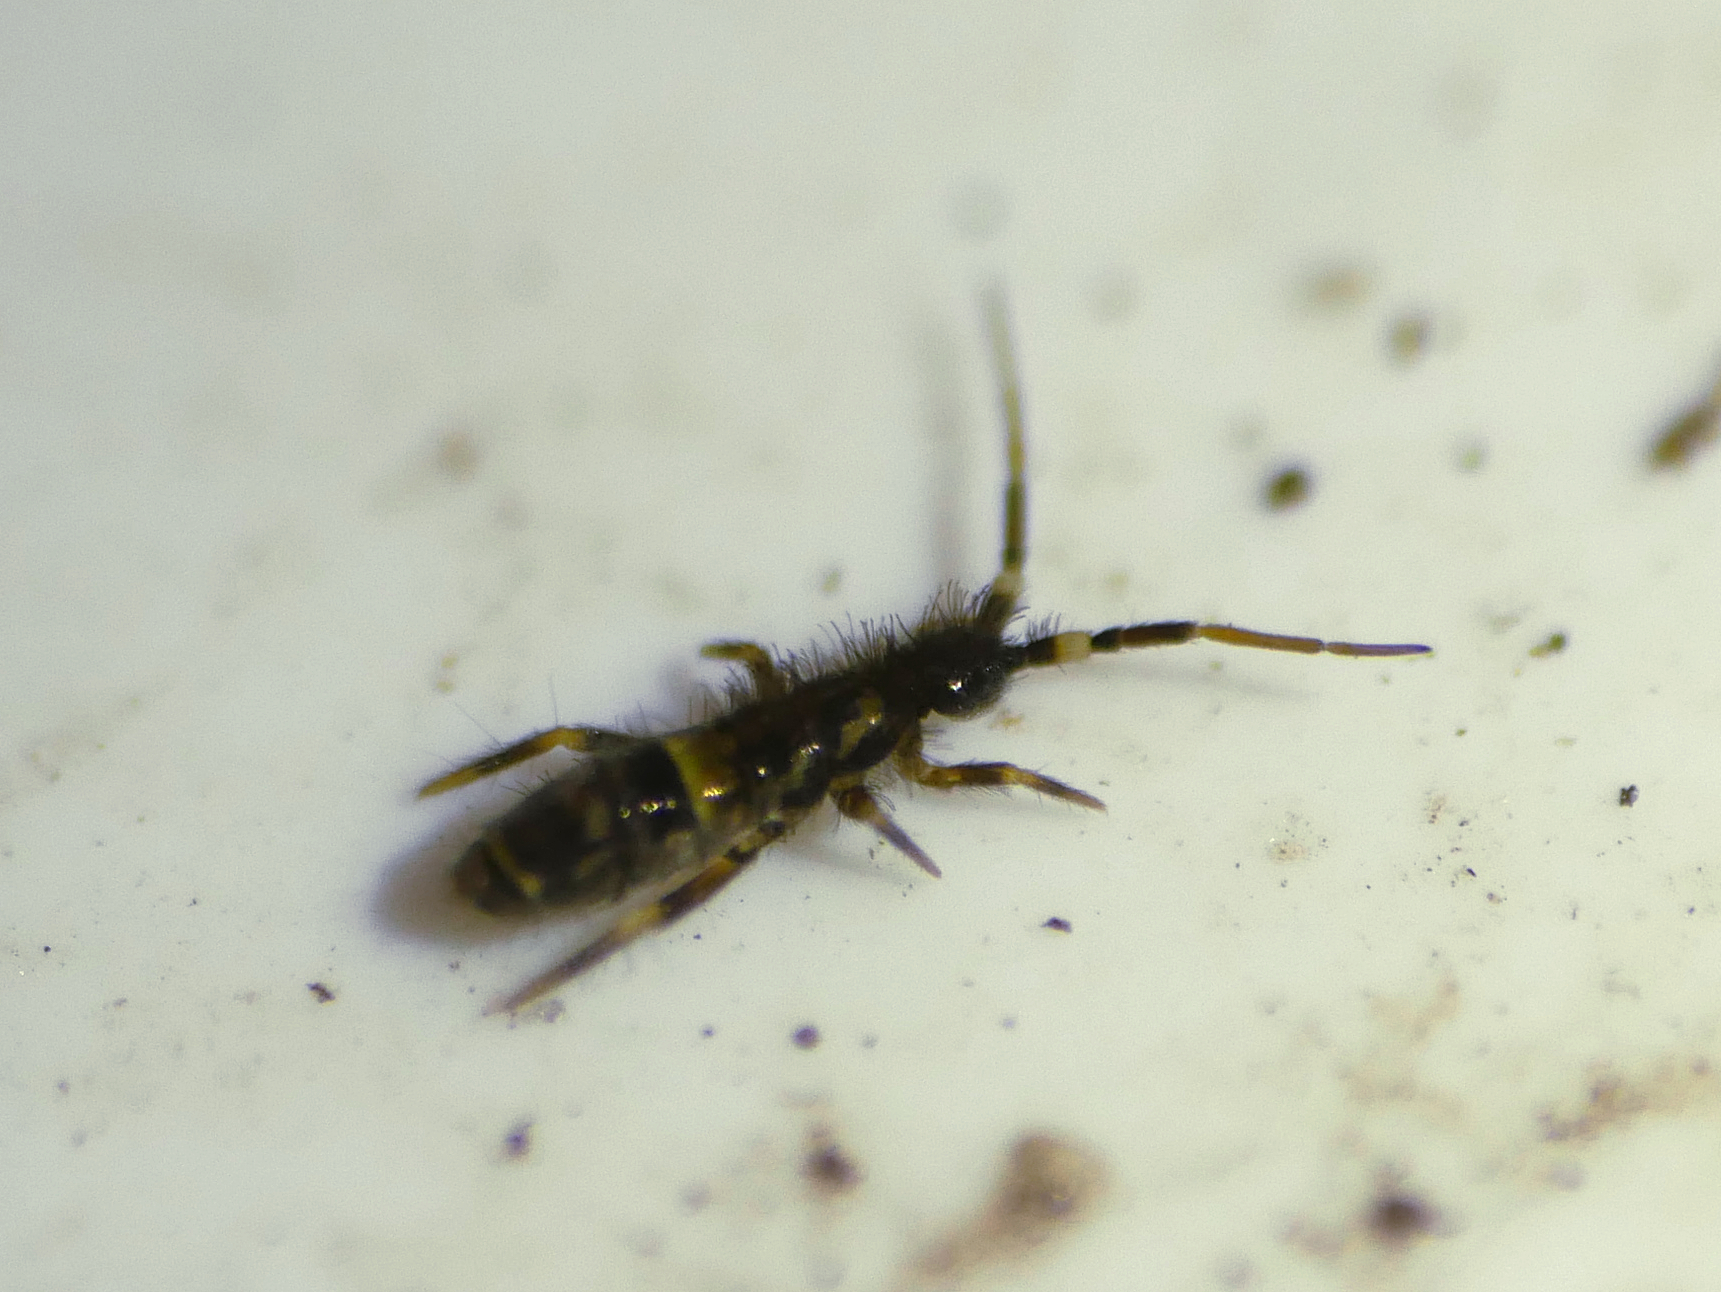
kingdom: Animalia
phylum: Arthropoda
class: Collembola
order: Entomobryomorpha
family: Orchesellidae
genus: Orchesella
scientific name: Orchesella cincta
